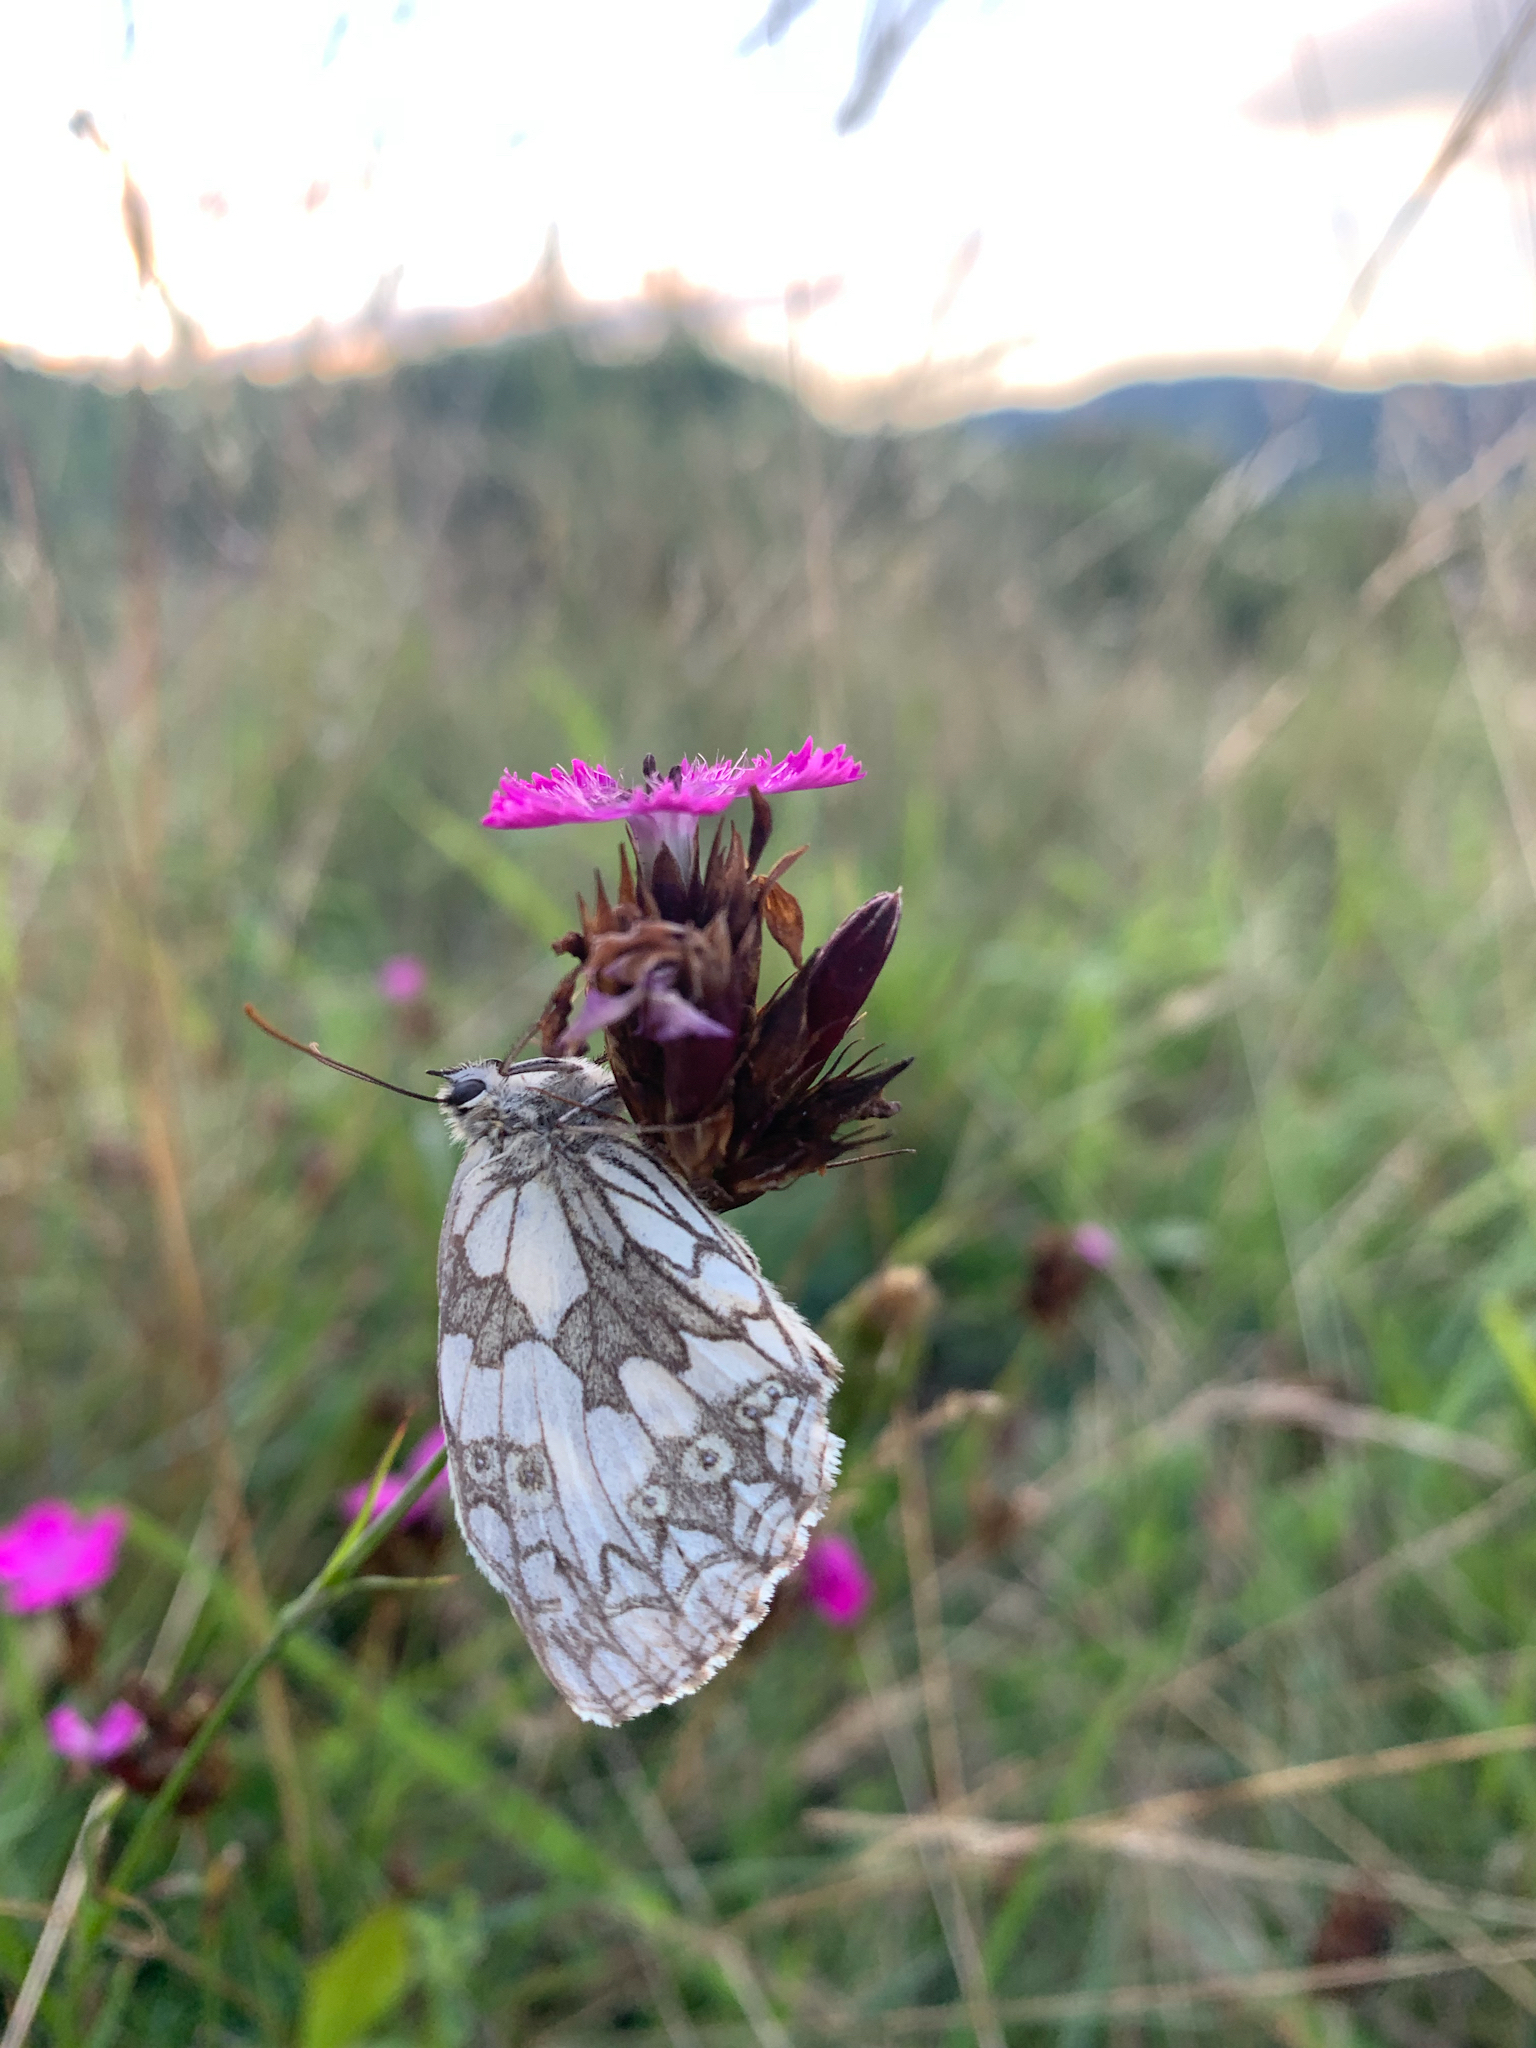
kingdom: Animalia
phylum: Arthropoda
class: Insecta
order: Lepidoptera
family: Nymphalidae
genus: Melanargia
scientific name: Melanargia galathea
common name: Marbled white
